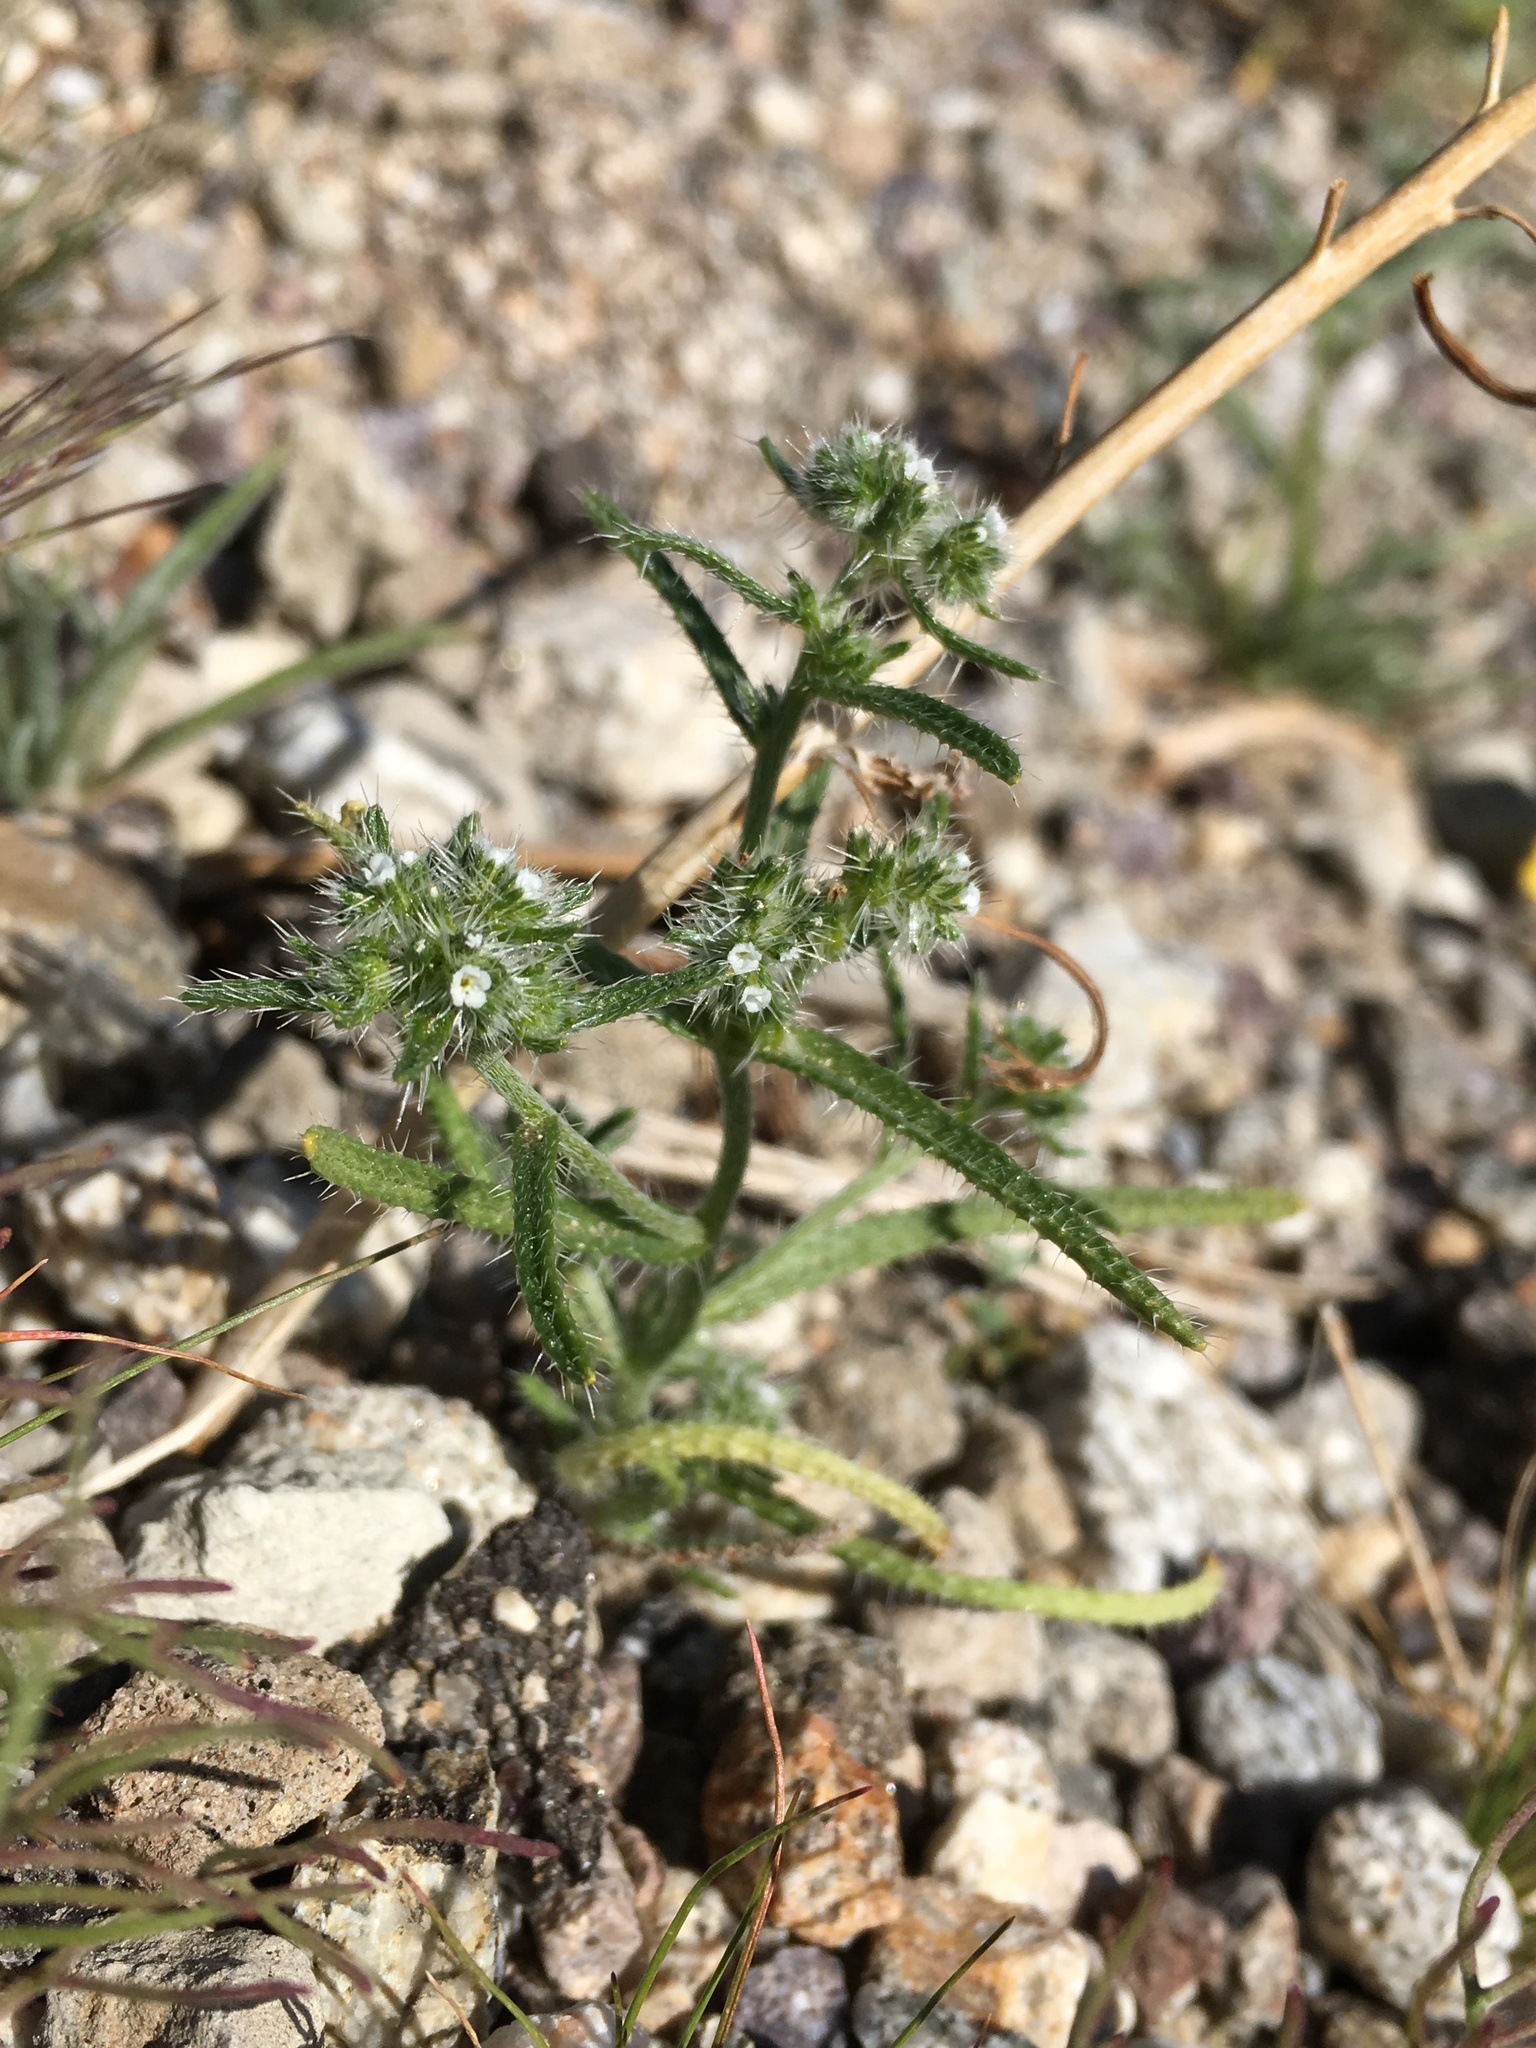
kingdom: Plantae
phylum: Tracheophyta
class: Magnoliopsida
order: Boraginales
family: Boraginaceae
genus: Cryptantha
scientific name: Cryptantha maritima
